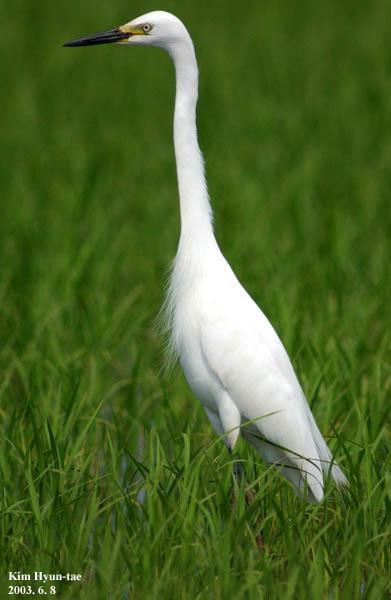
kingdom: Animalia
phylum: Chordata
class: Aves
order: Pelecaniformes
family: Ardeidae
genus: Egretta
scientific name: Egretta intermedia
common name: Intermediate egret
